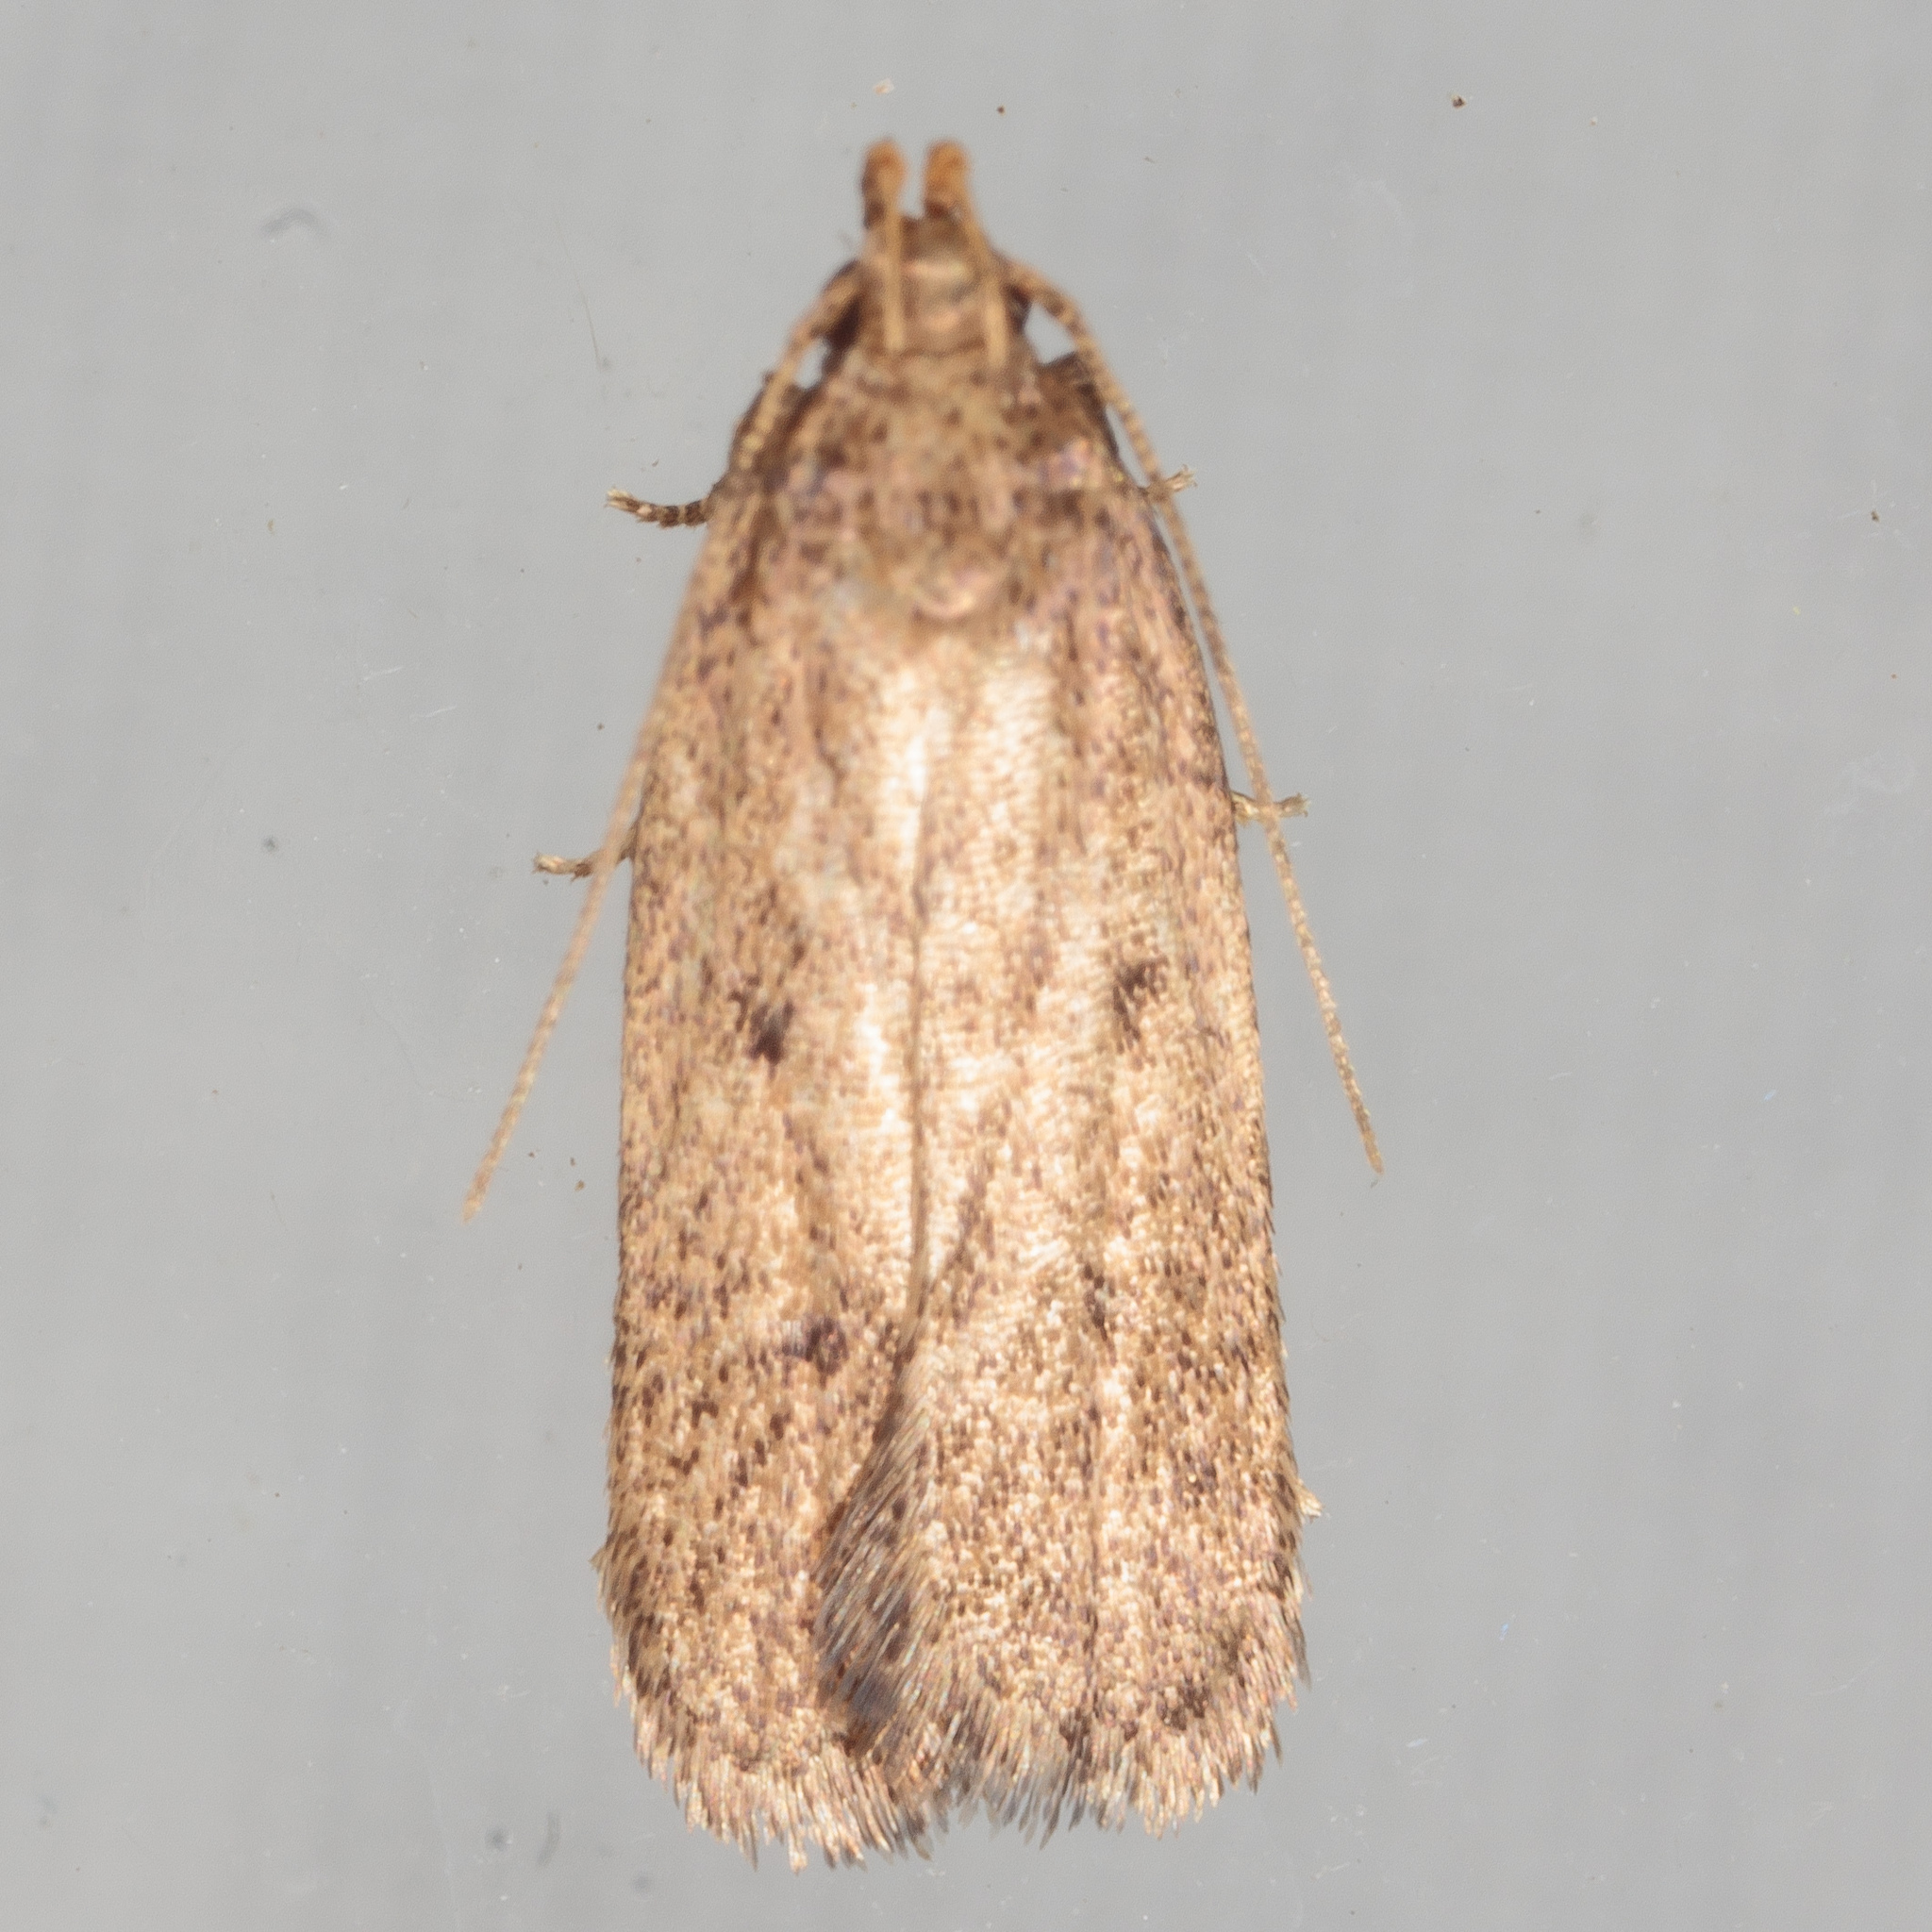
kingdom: Animalia
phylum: Arthropoda
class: Insecta
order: Lepidoptera
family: Autostichidae
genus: Glyphidocera
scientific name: Glyphidocera juniperella
